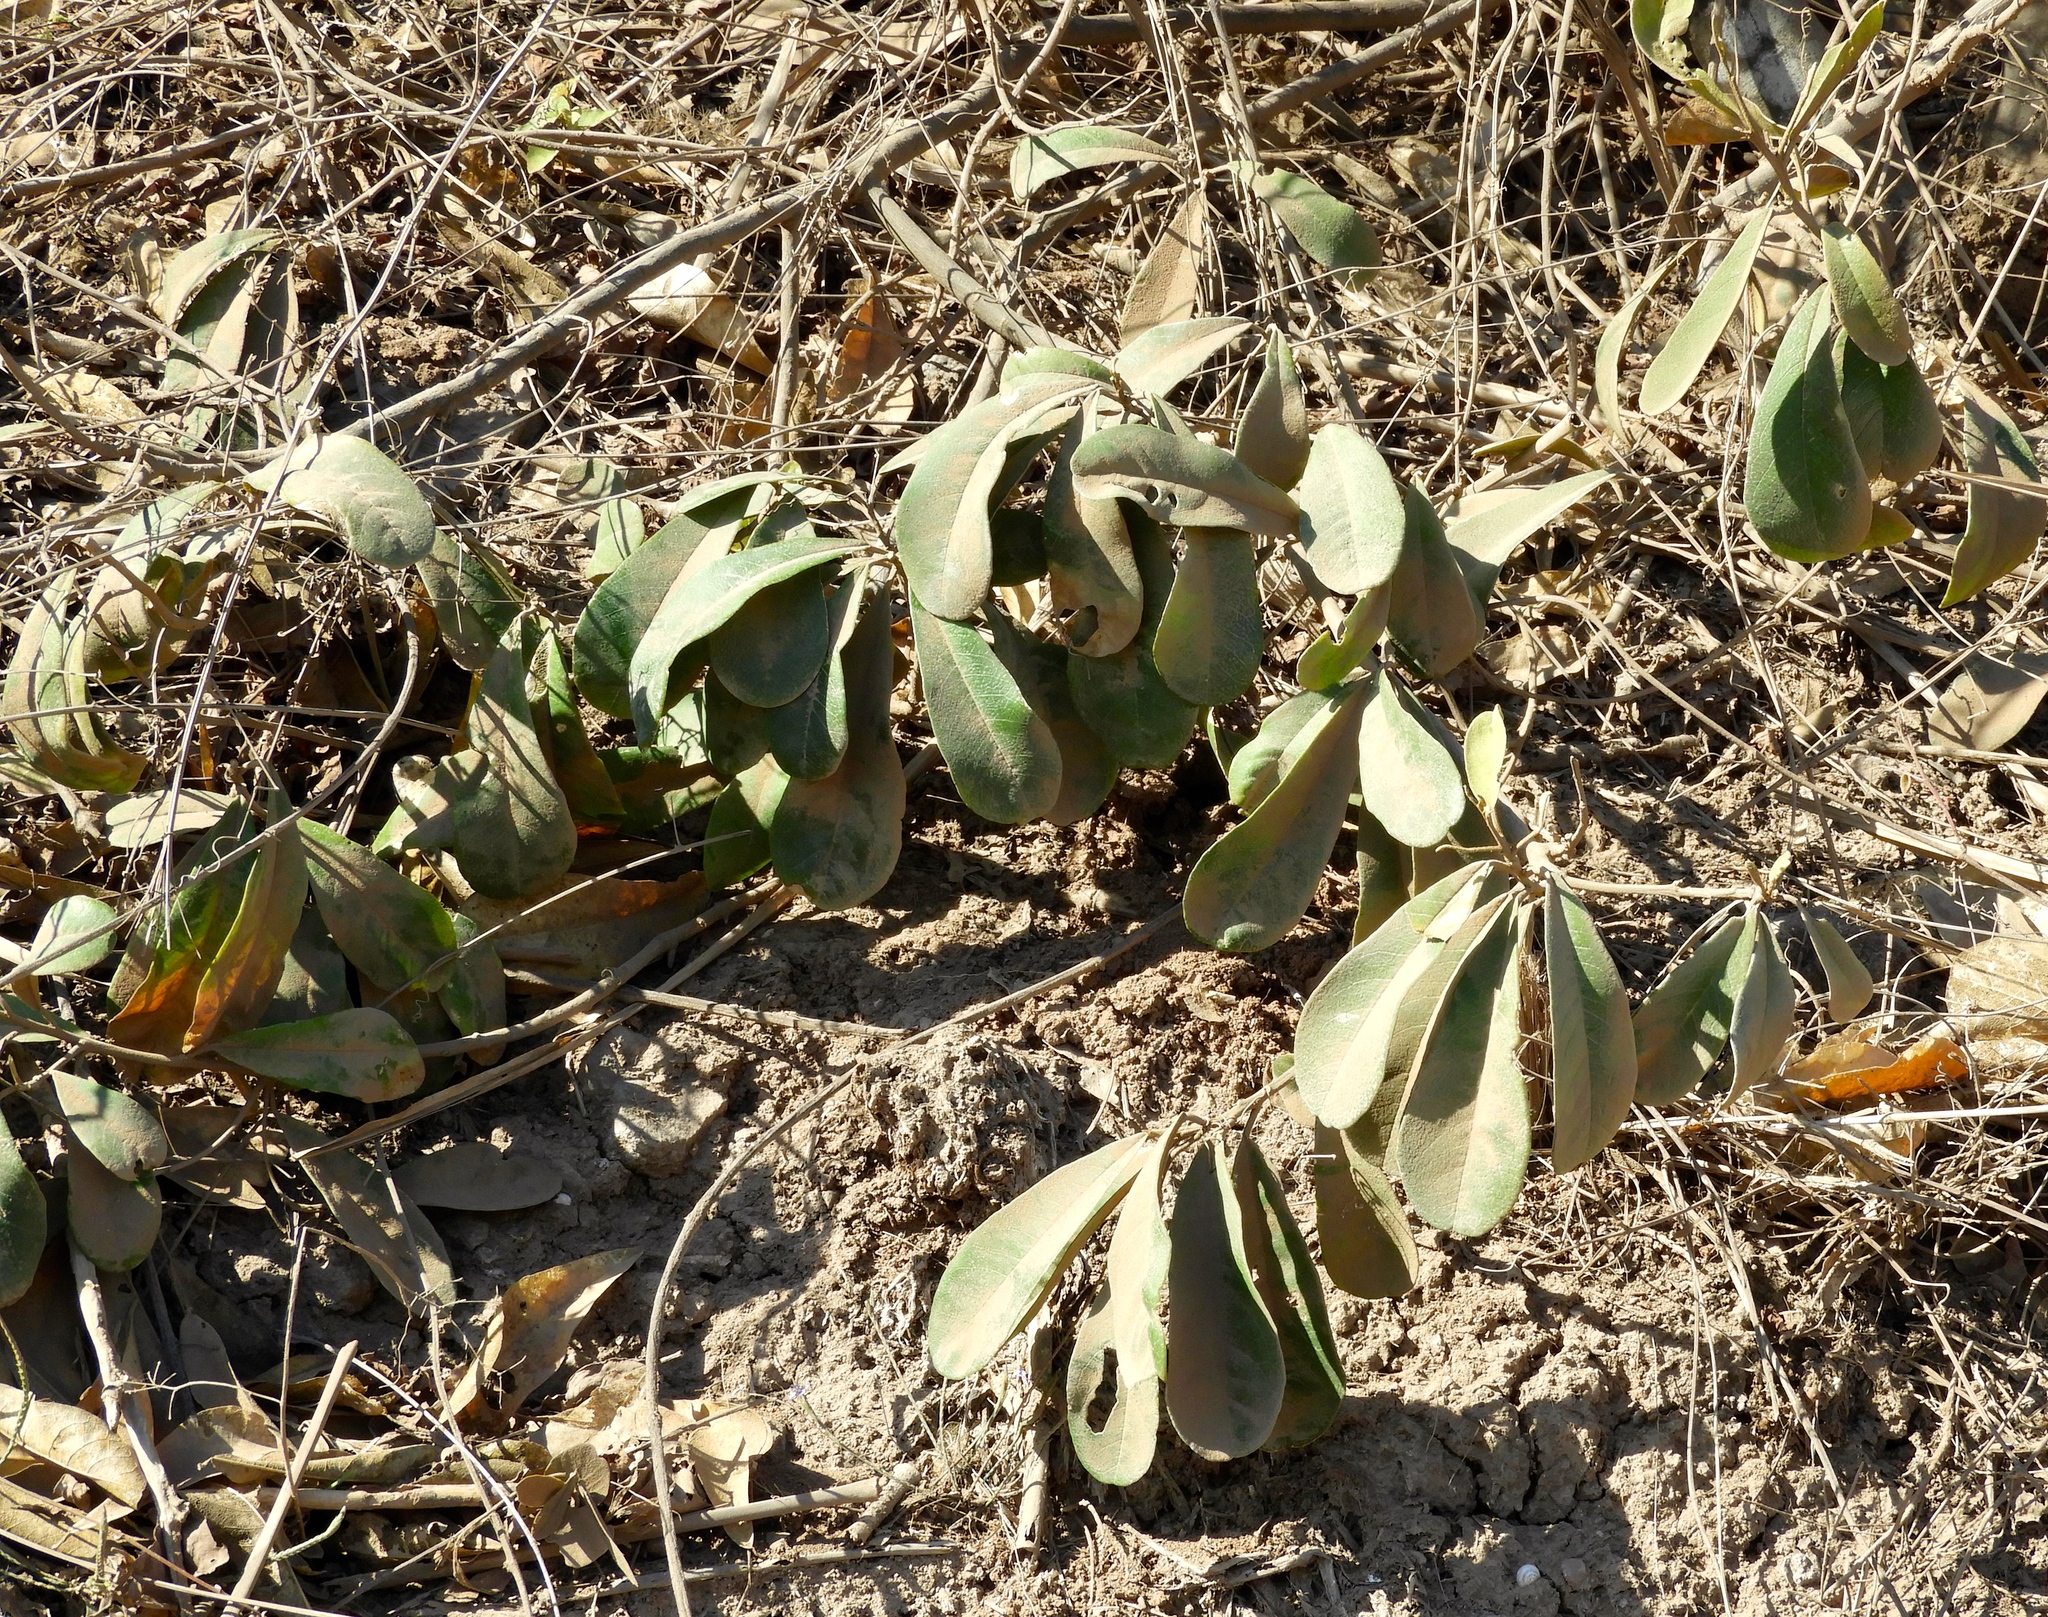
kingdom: Plantae
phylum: Tracheophyta
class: Magnoliopsida
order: Gentianales
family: Apocynaceae
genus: Cascabela
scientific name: Cascabela ovata
